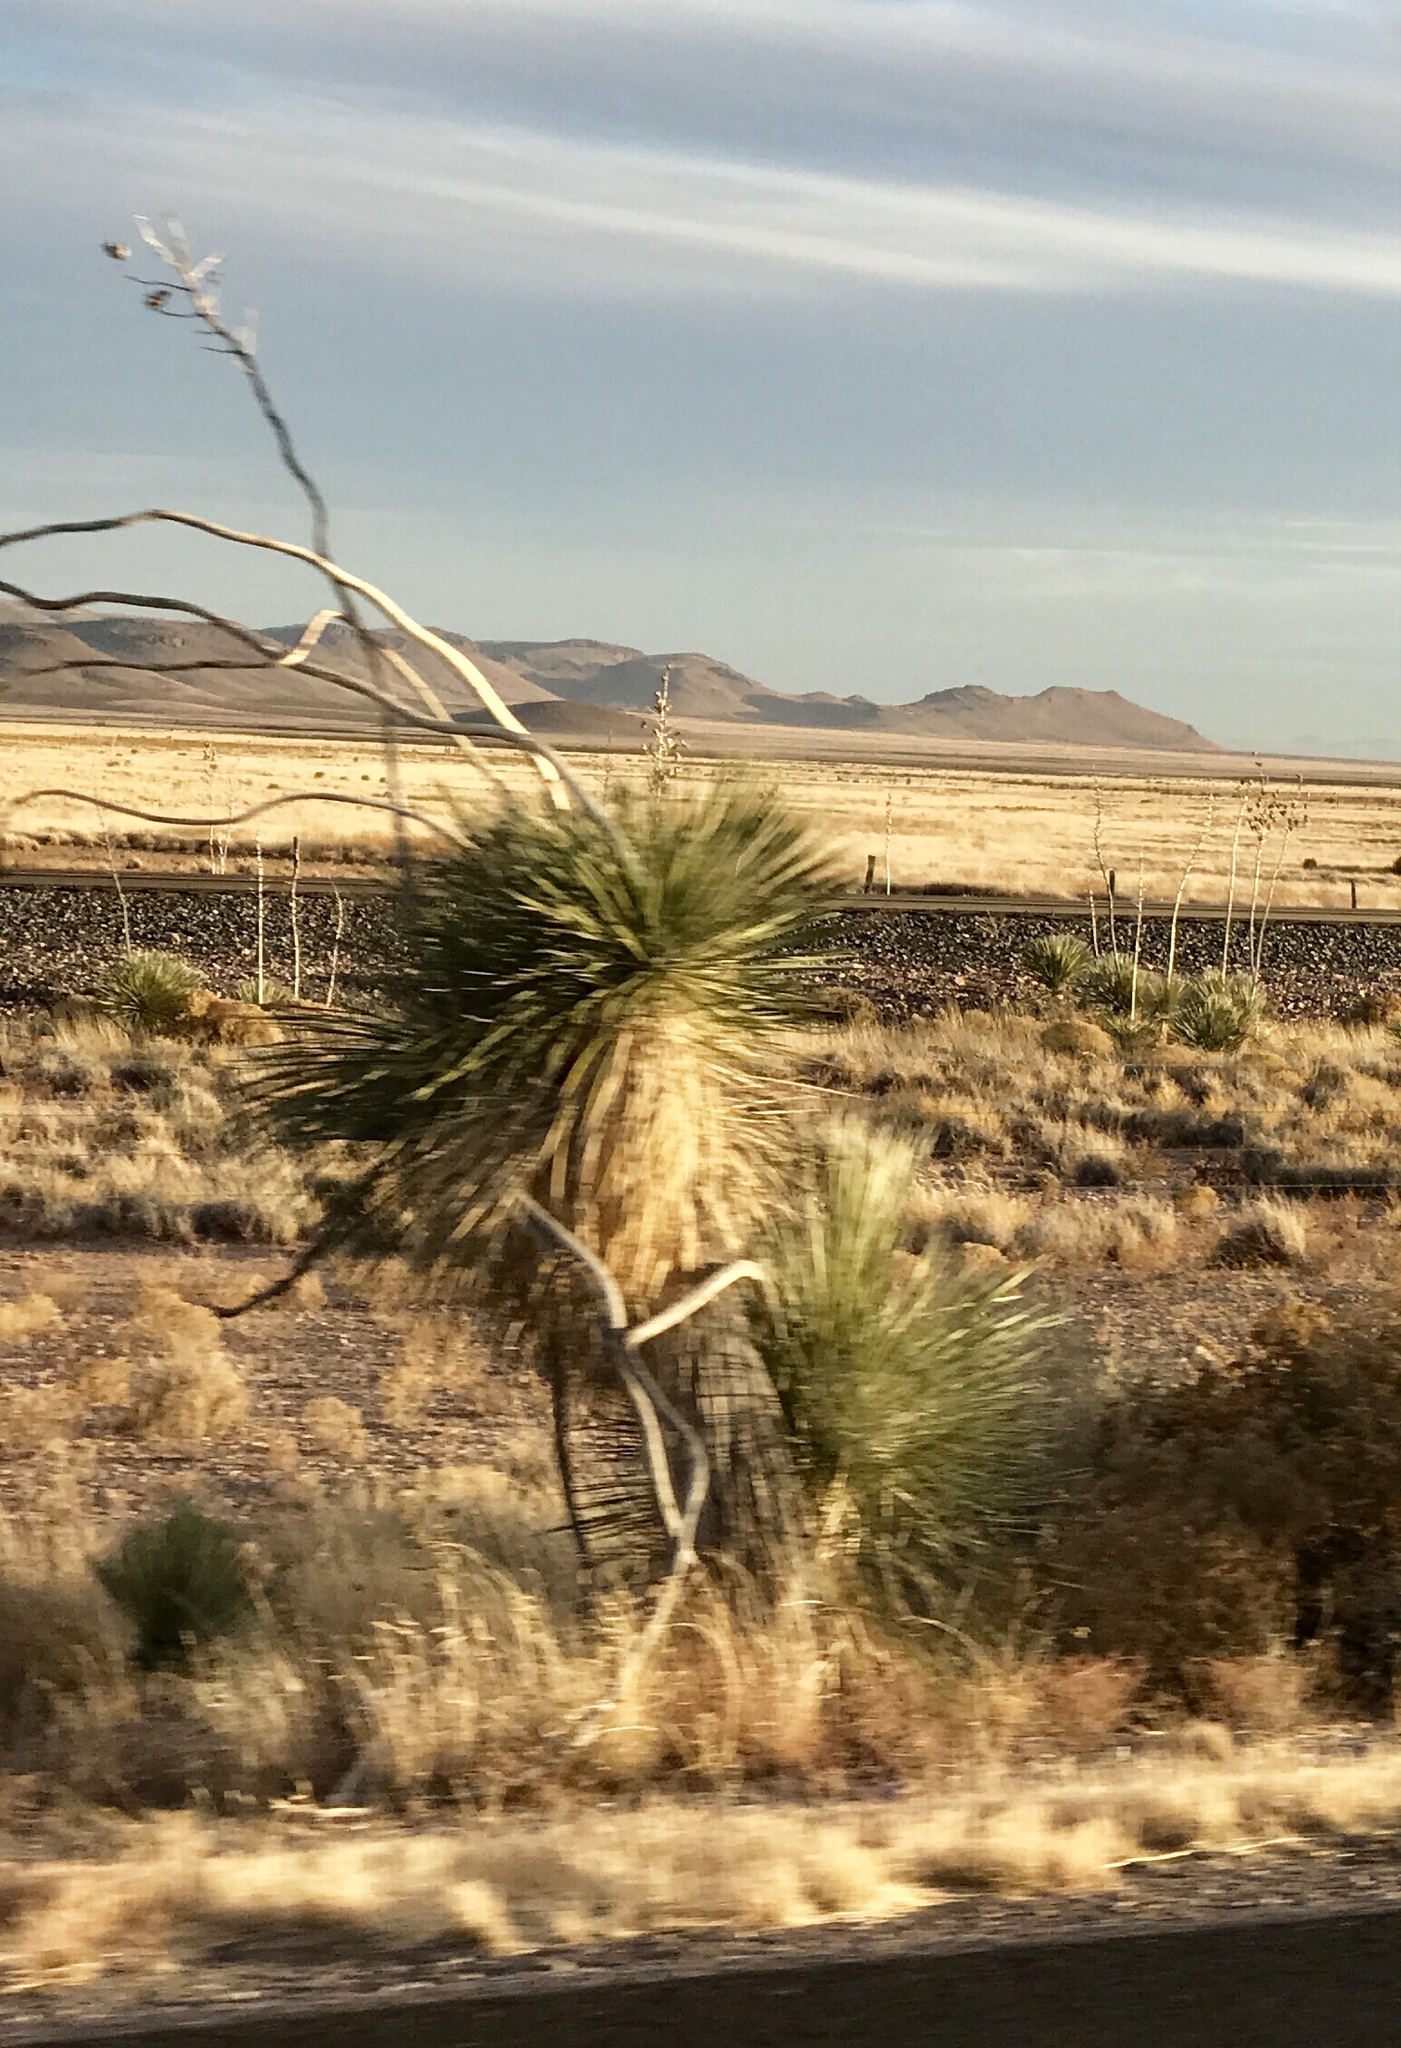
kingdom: Plantae
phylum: Tracheophyta
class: Liliopsida
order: Asparagales
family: Asparagaceae
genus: Yucca
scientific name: Yucca elata
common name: Palmella
